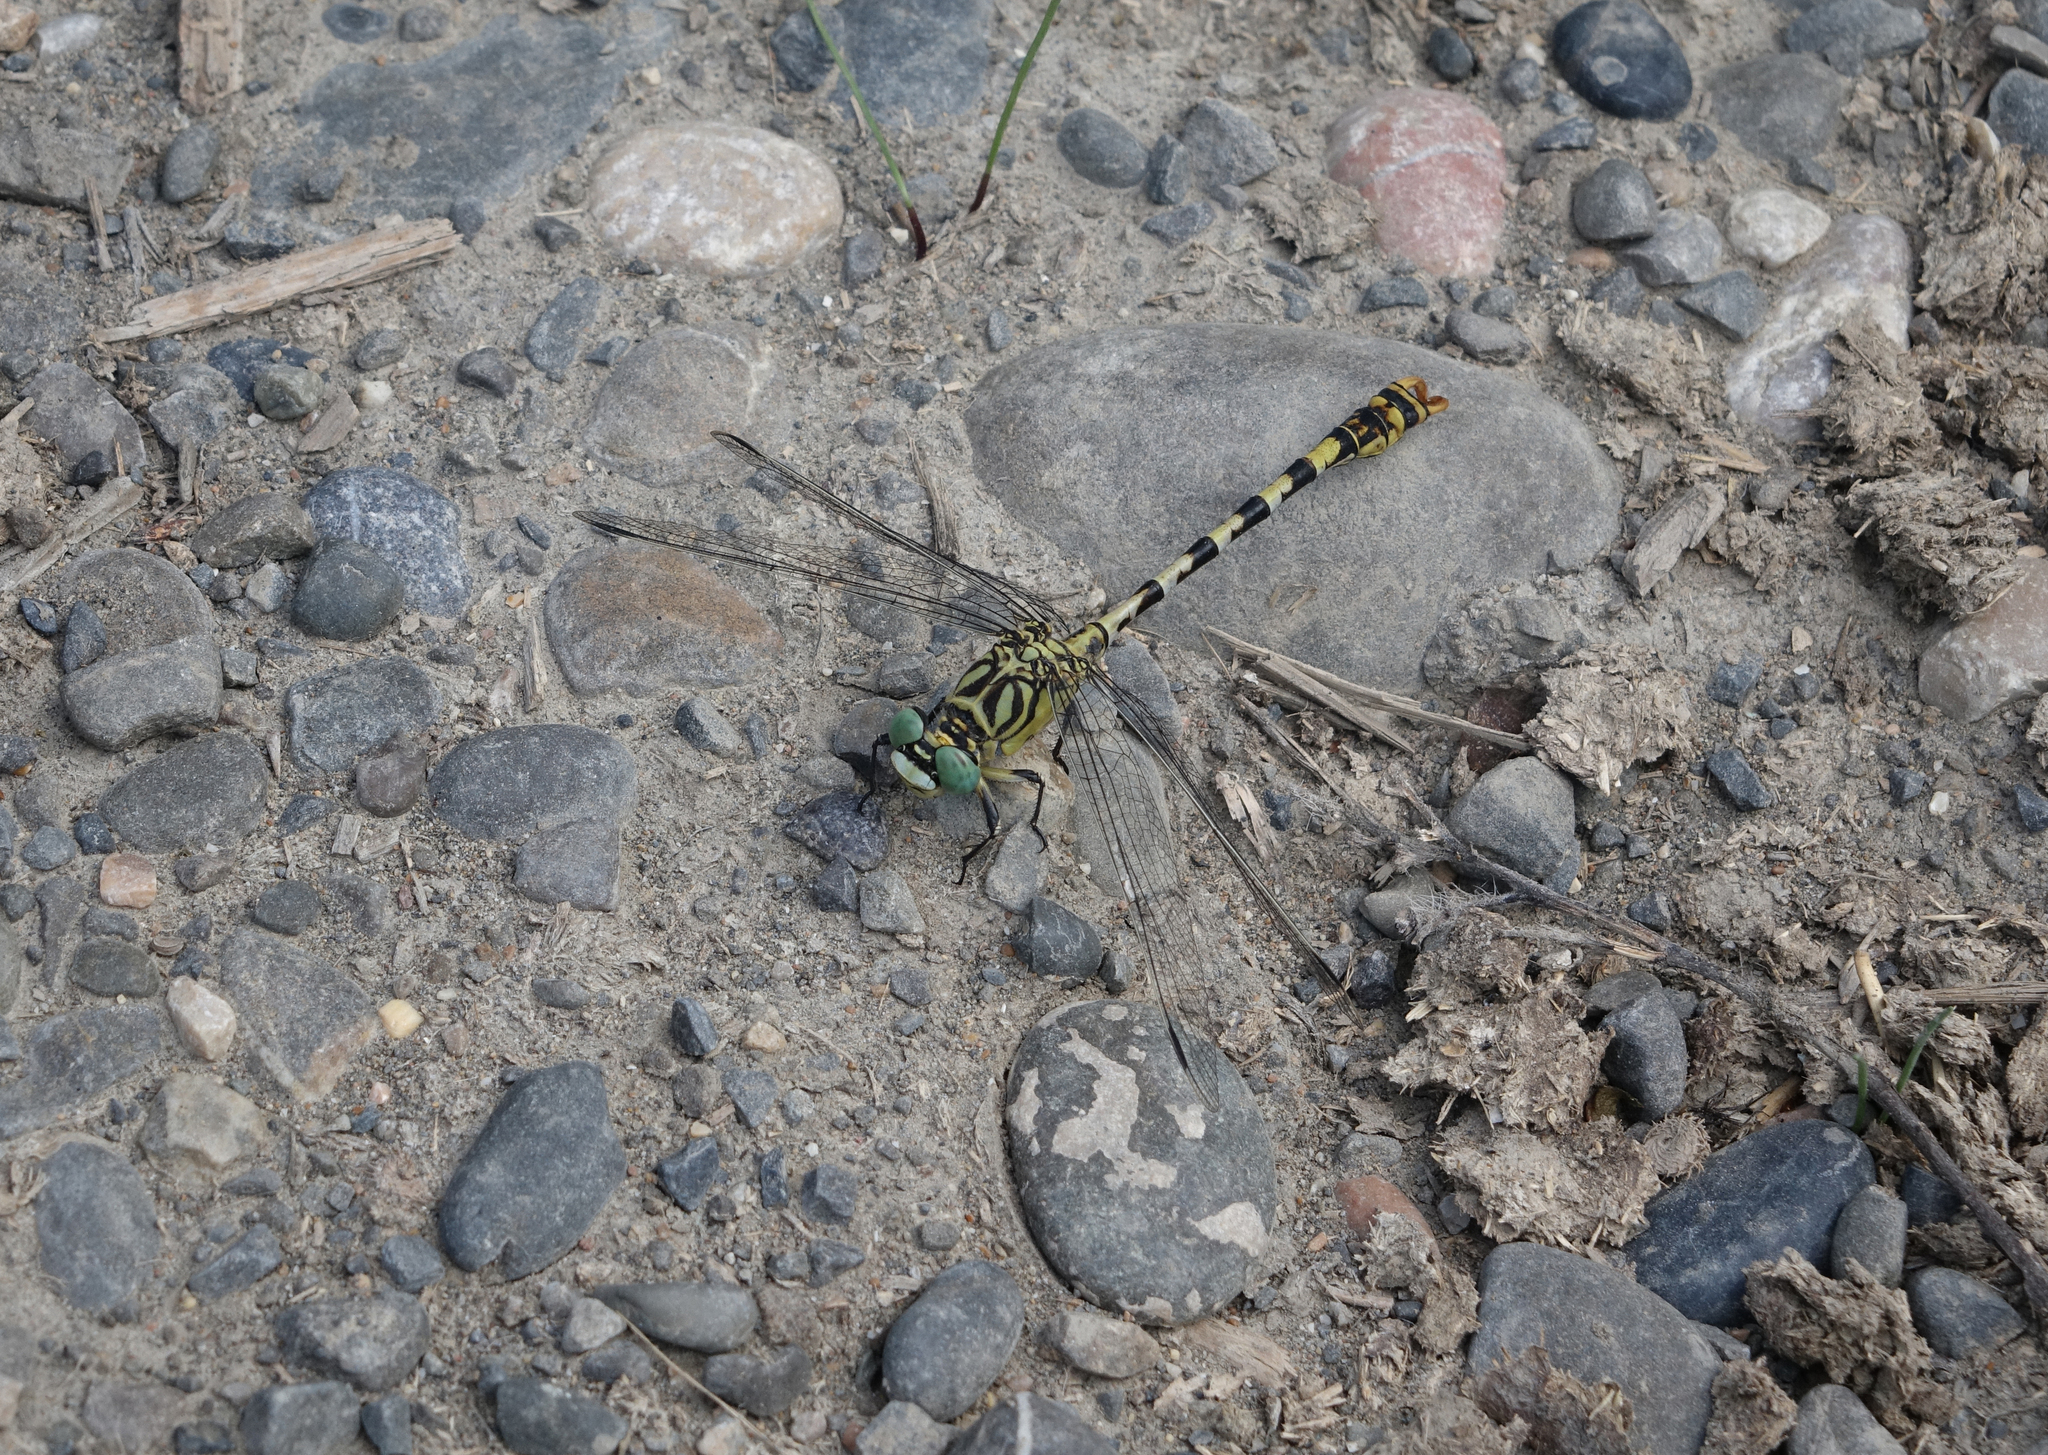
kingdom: Animalia
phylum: Arthropoda
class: Insecta
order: Odonata
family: Gomphidae
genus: Onychogomphus
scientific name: Onychogomphus forcipatus
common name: Small pincertail
